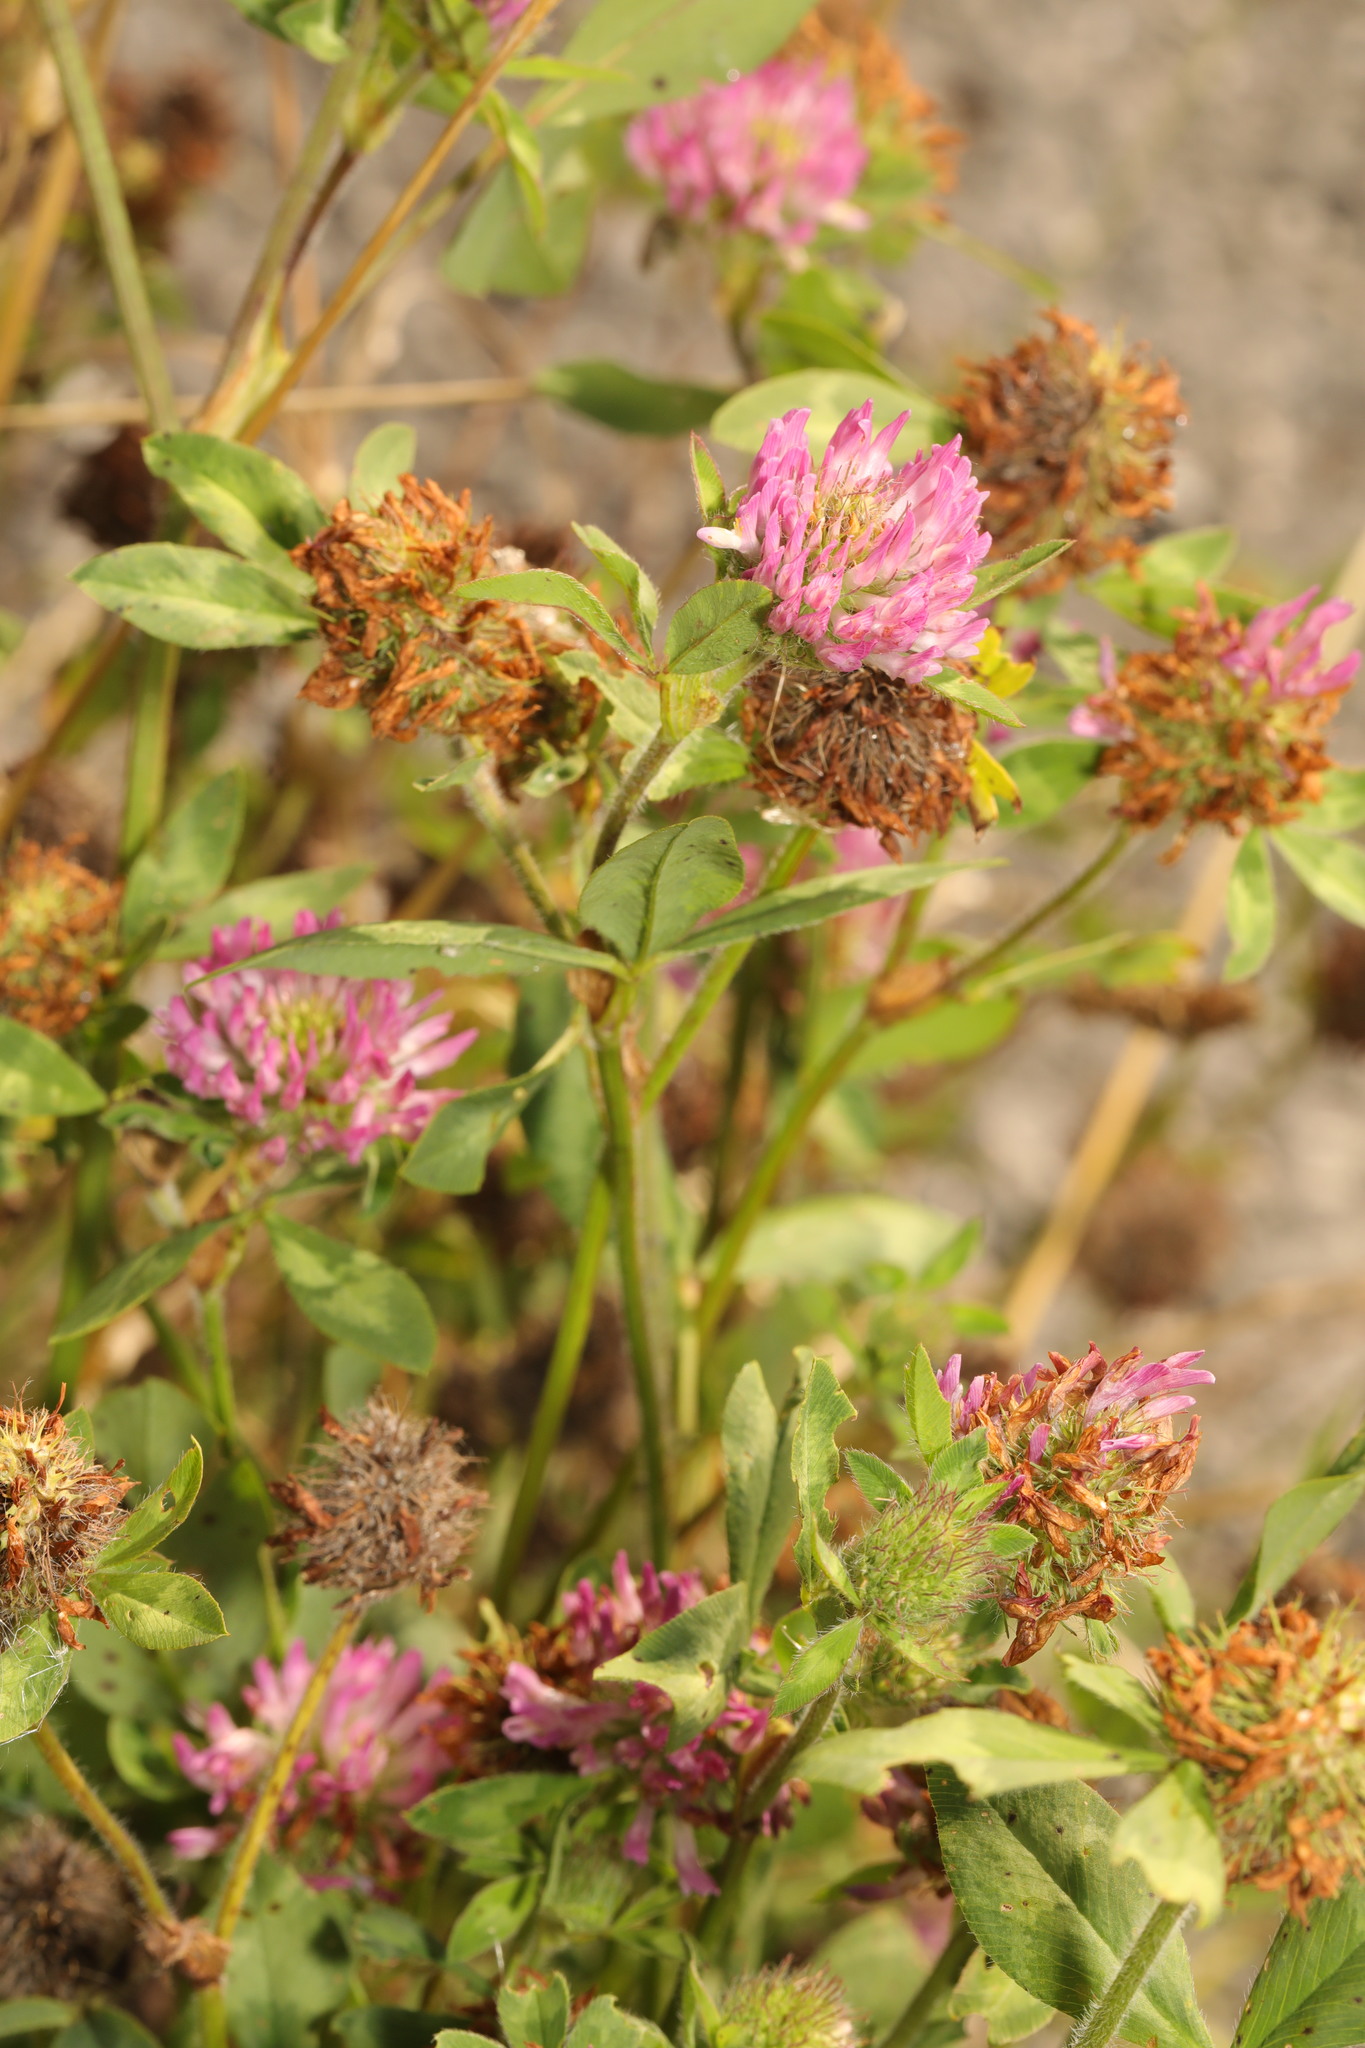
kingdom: Plantae
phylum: Tracheophyta
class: Magnoliopsida
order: Fabales
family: Fabaceae
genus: Trifolium
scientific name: Trifolium pratense
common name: Red clover
